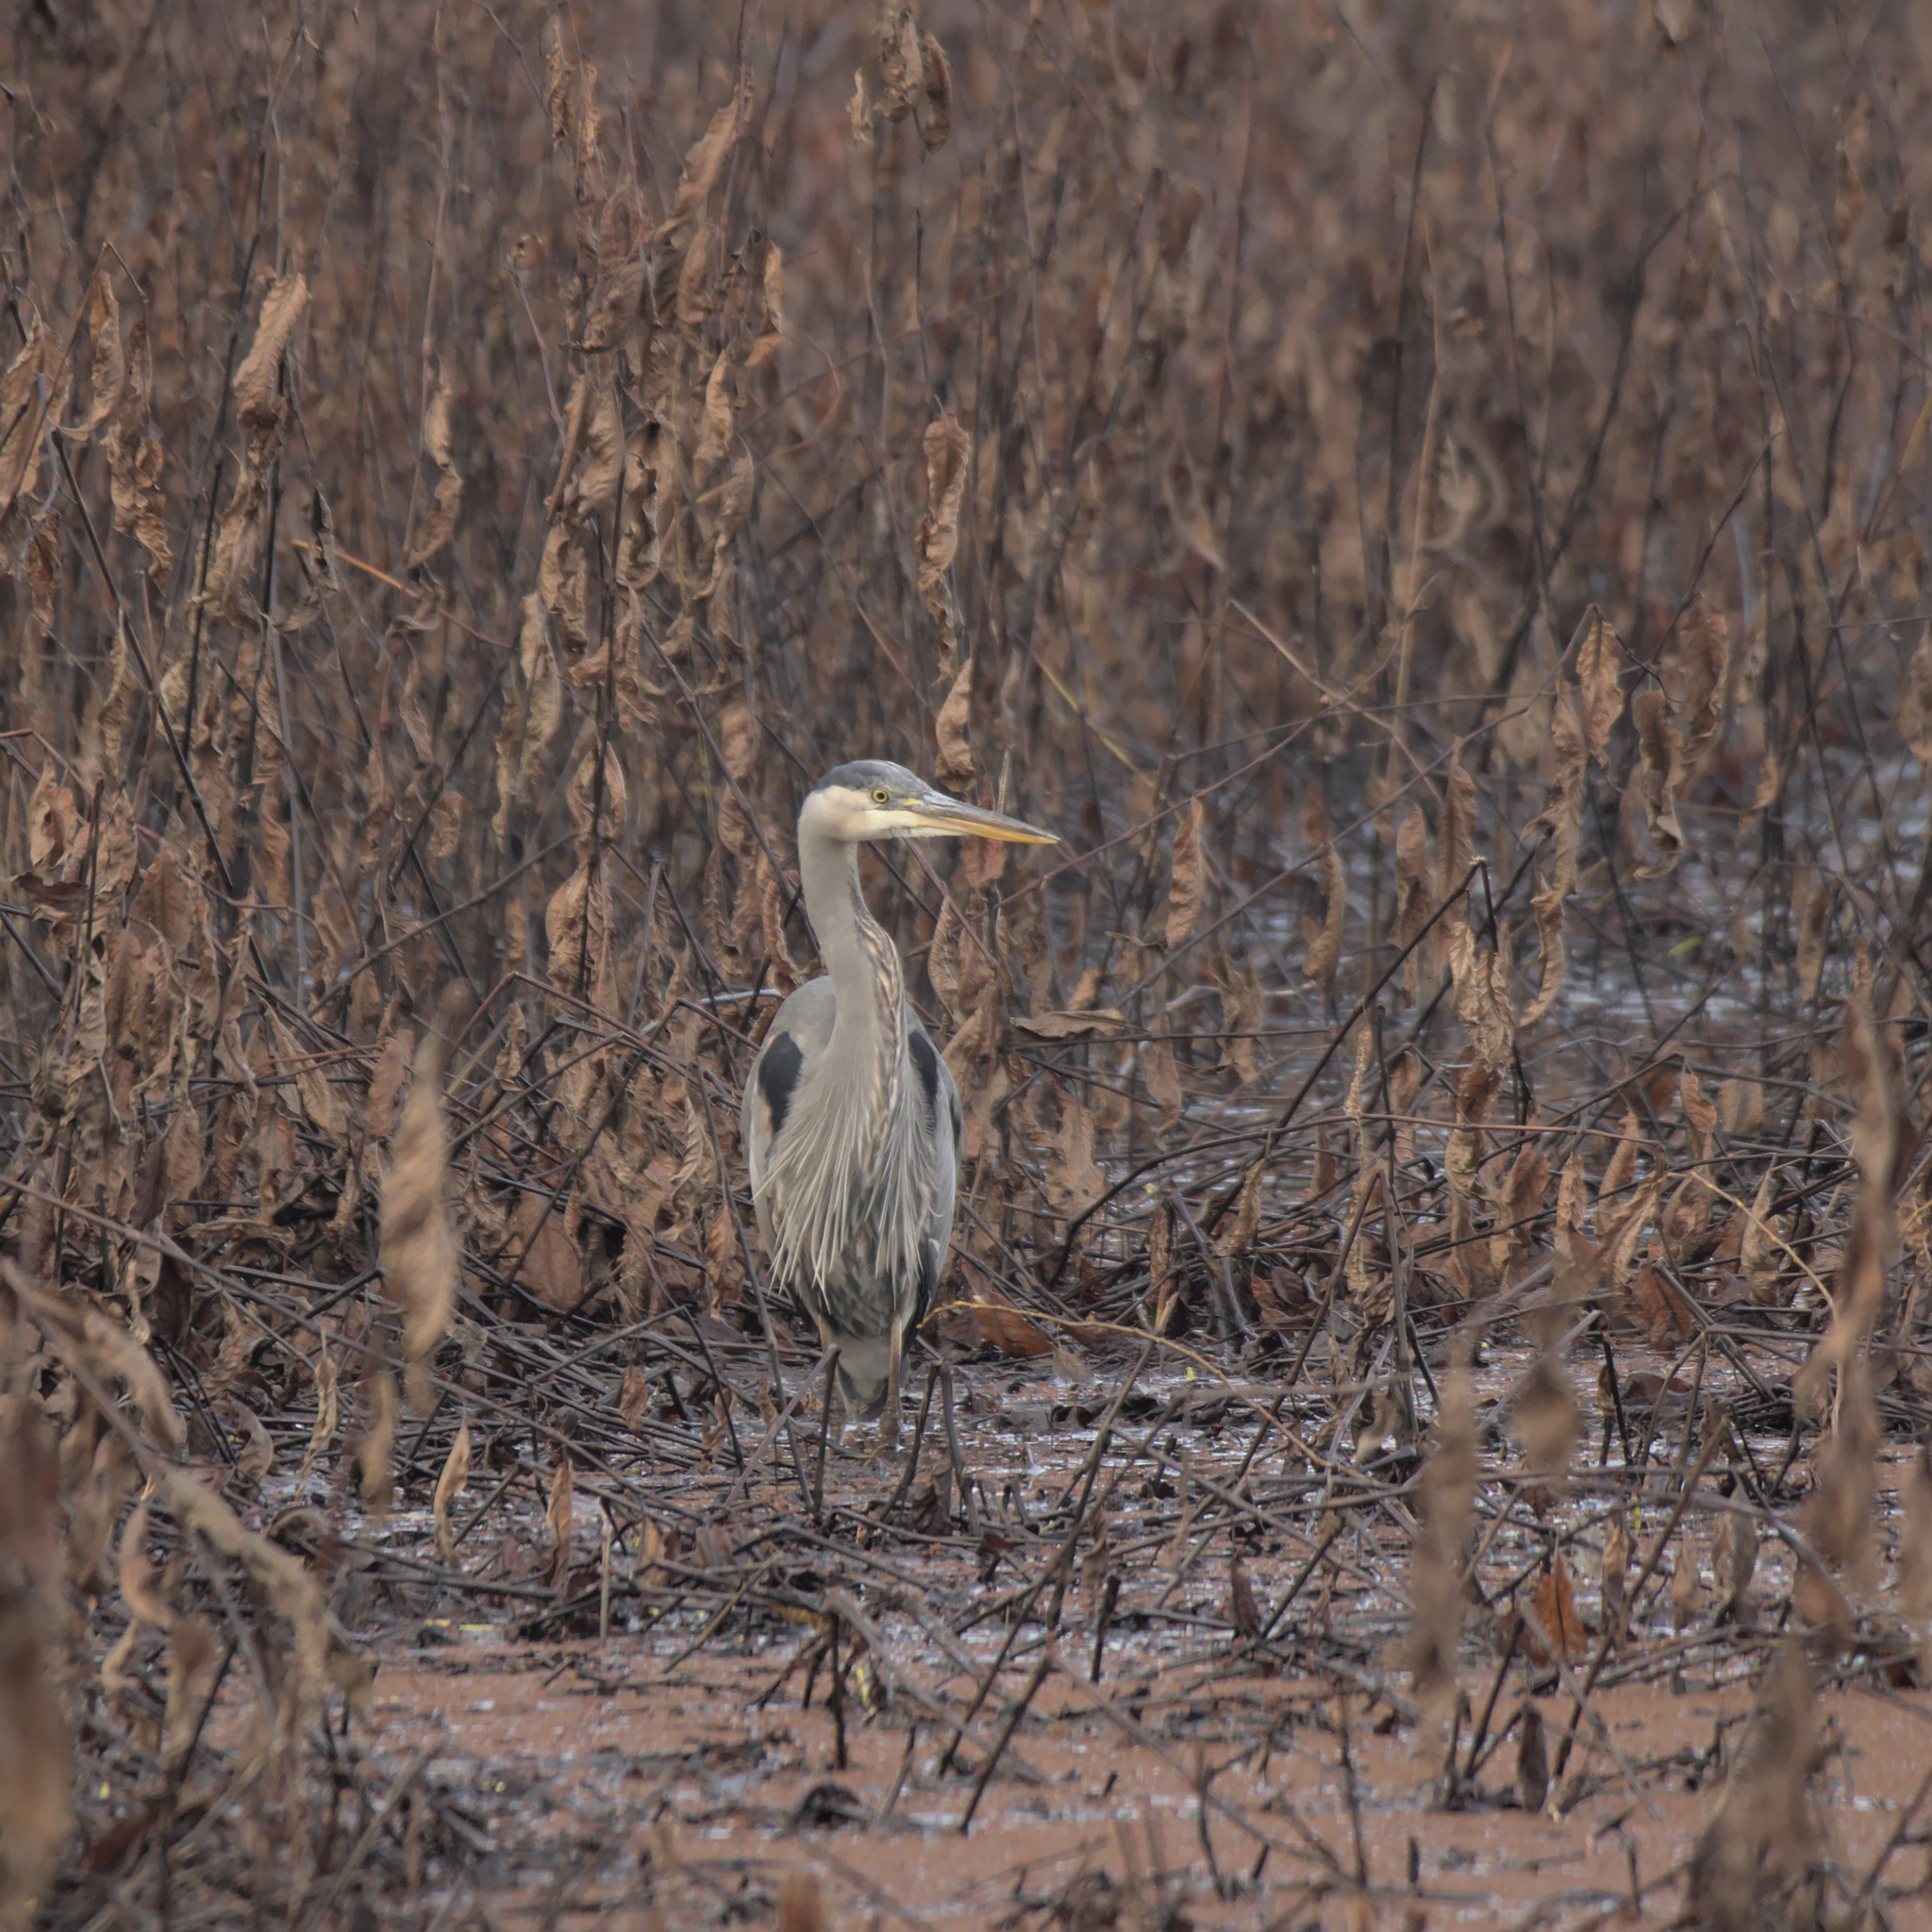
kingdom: Animalia
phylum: Chordata
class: Aves
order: Pelecaniformes
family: Ardeidae
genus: Ardea
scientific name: Ardea herodias
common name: Great blue heron
